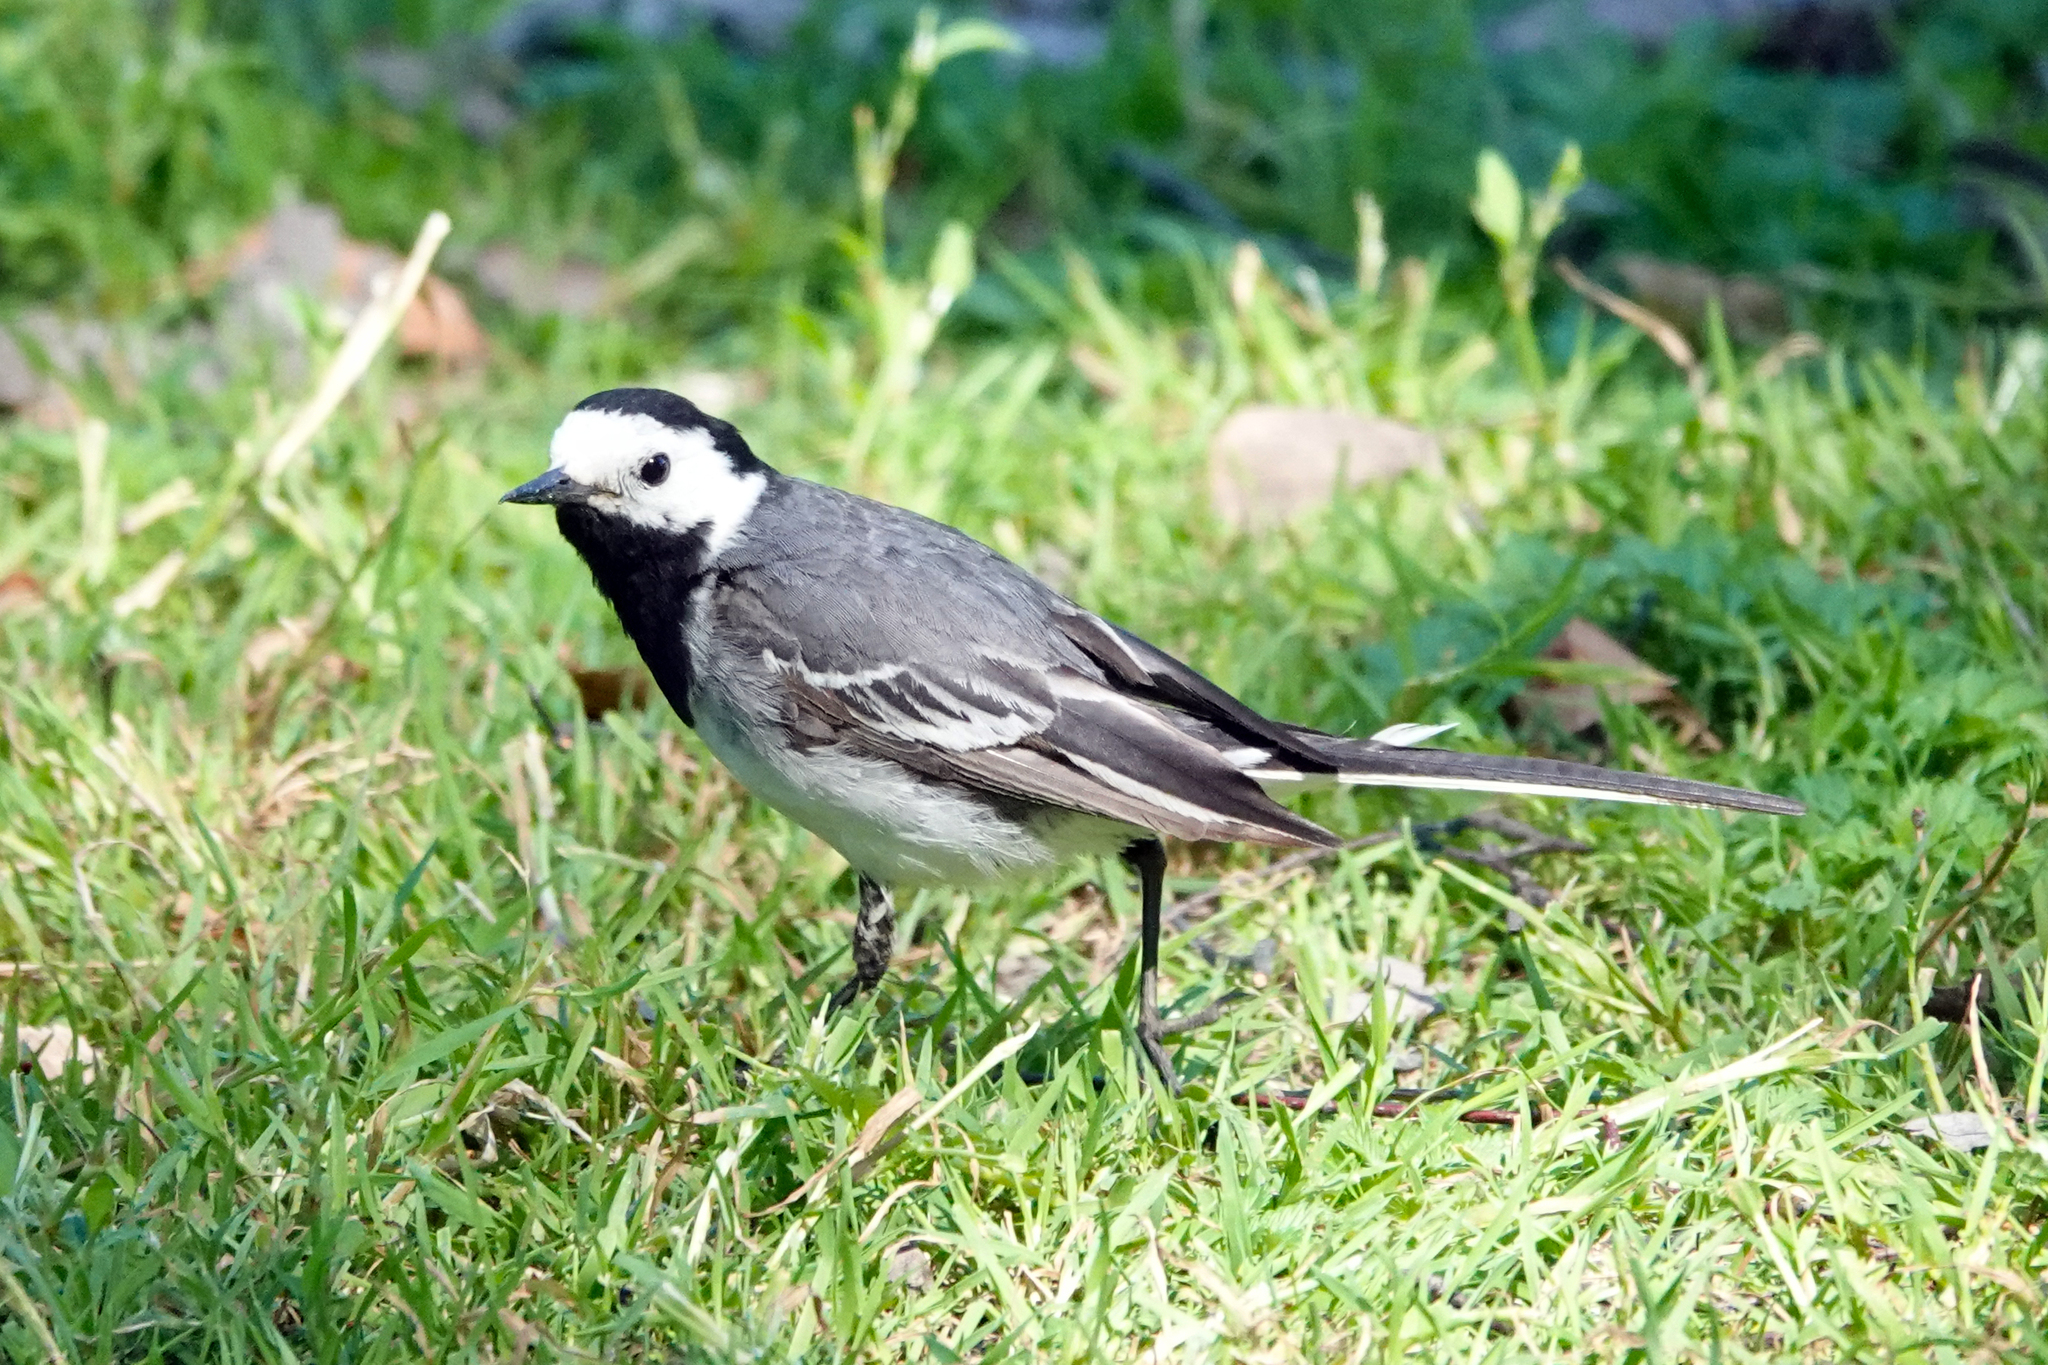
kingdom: Animalia
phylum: Chordata
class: Aves
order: Passeriformes
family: Motacillidae
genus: Motacilla
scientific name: Motacilla alba
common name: White wagtail
